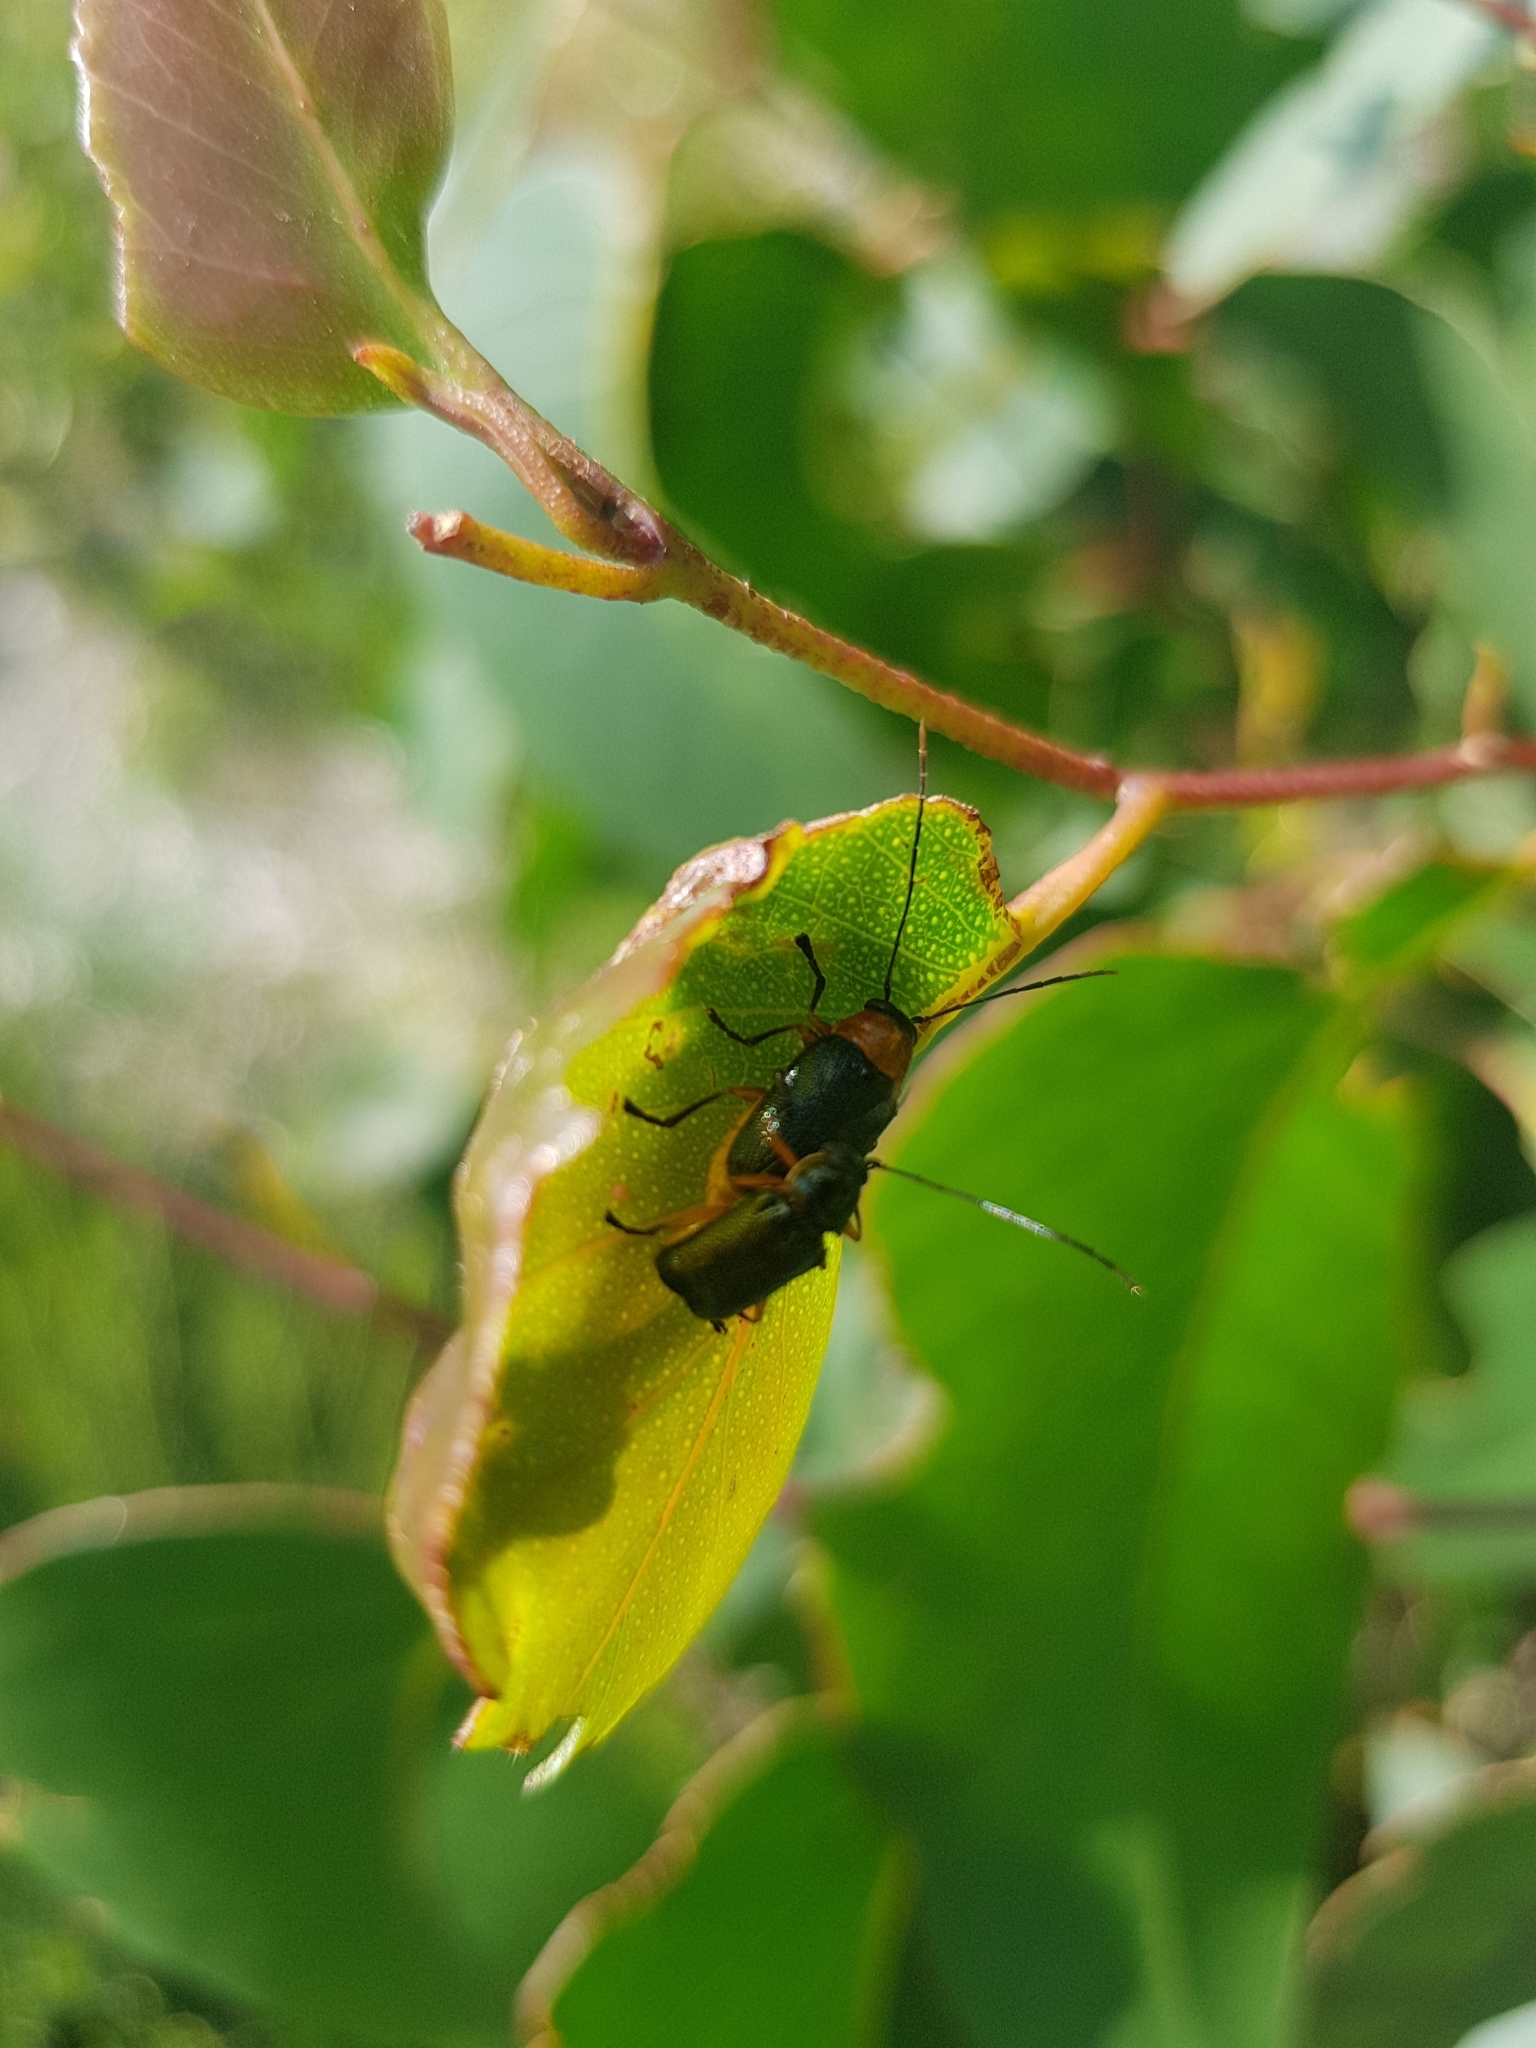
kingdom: Animalia
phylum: Arthropoda
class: Insecta
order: Coleoptera
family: Chrysomelidae
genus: Aporocera
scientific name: Aporocera viridipennis
